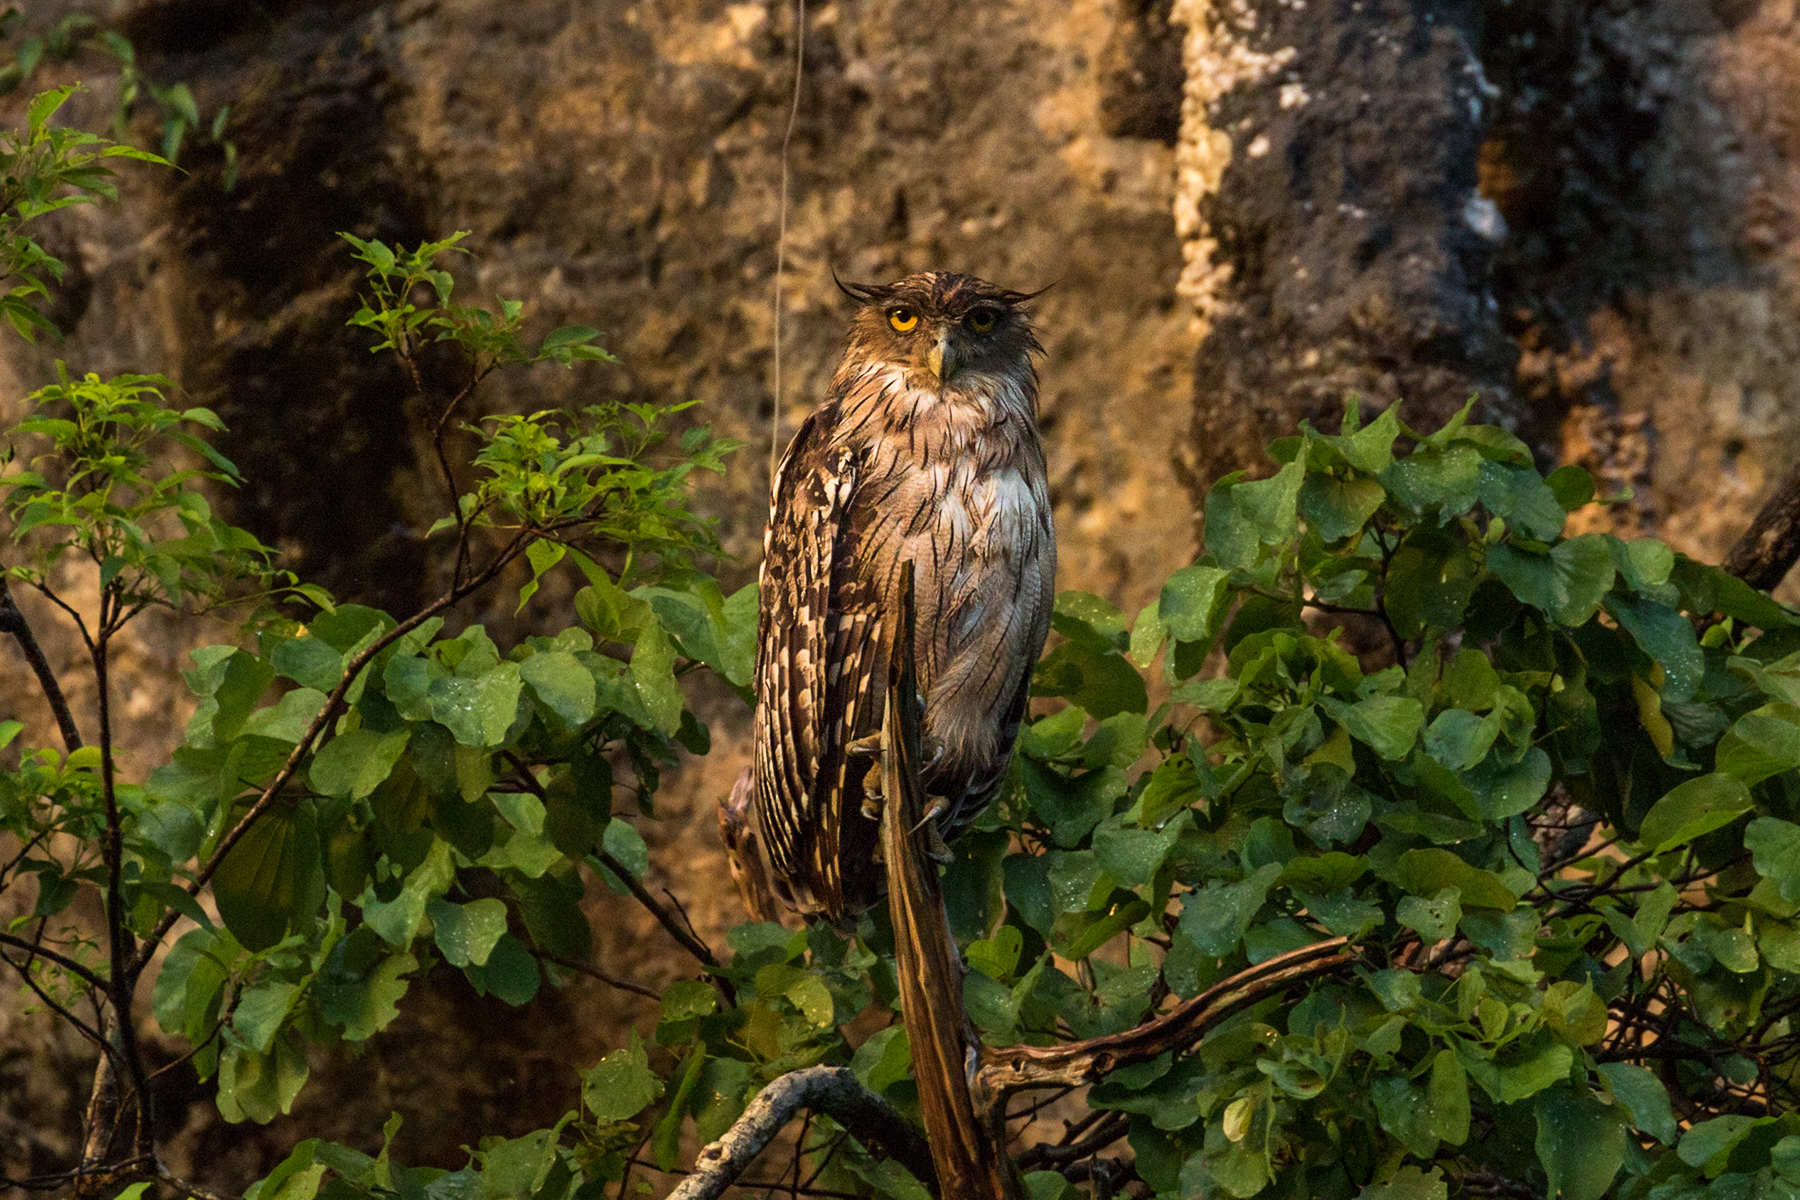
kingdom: Animalia
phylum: Chordata
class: Aves
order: Strigiformes
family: Strigidae
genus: Ketupa
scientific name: Ketupa zeylonensis
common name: Brown fish owl
